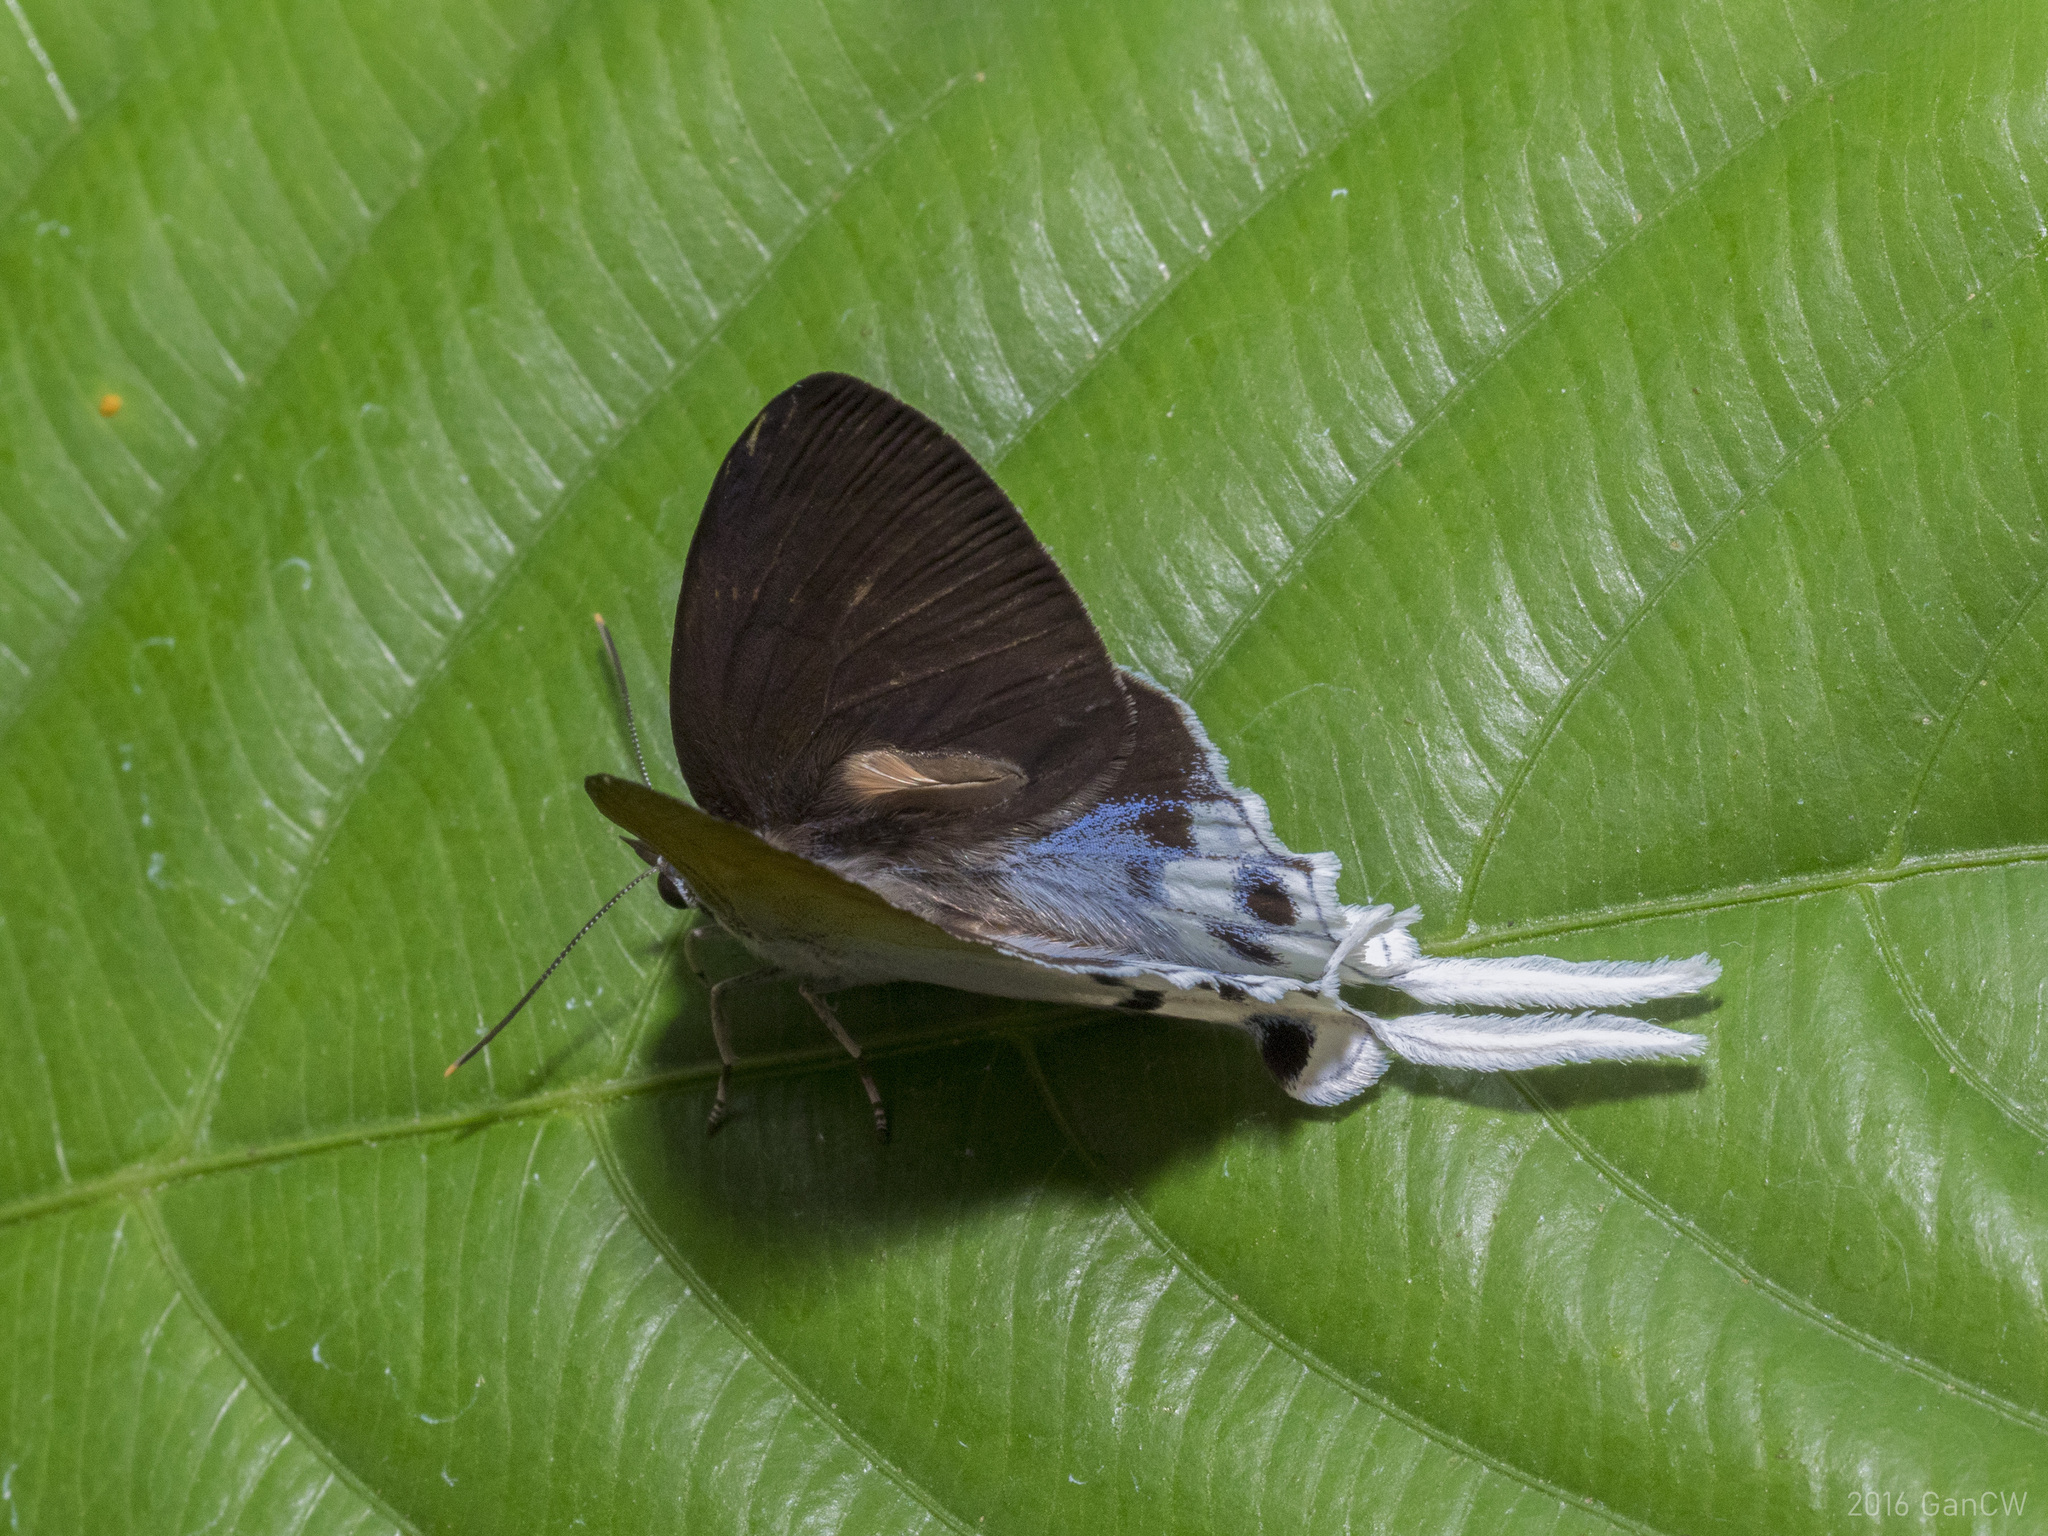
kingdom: Animalia
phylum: Arthropoda
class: Insecta
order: Lepidoptera
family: Lycaenidae
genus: Thrix
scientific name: Thrix
